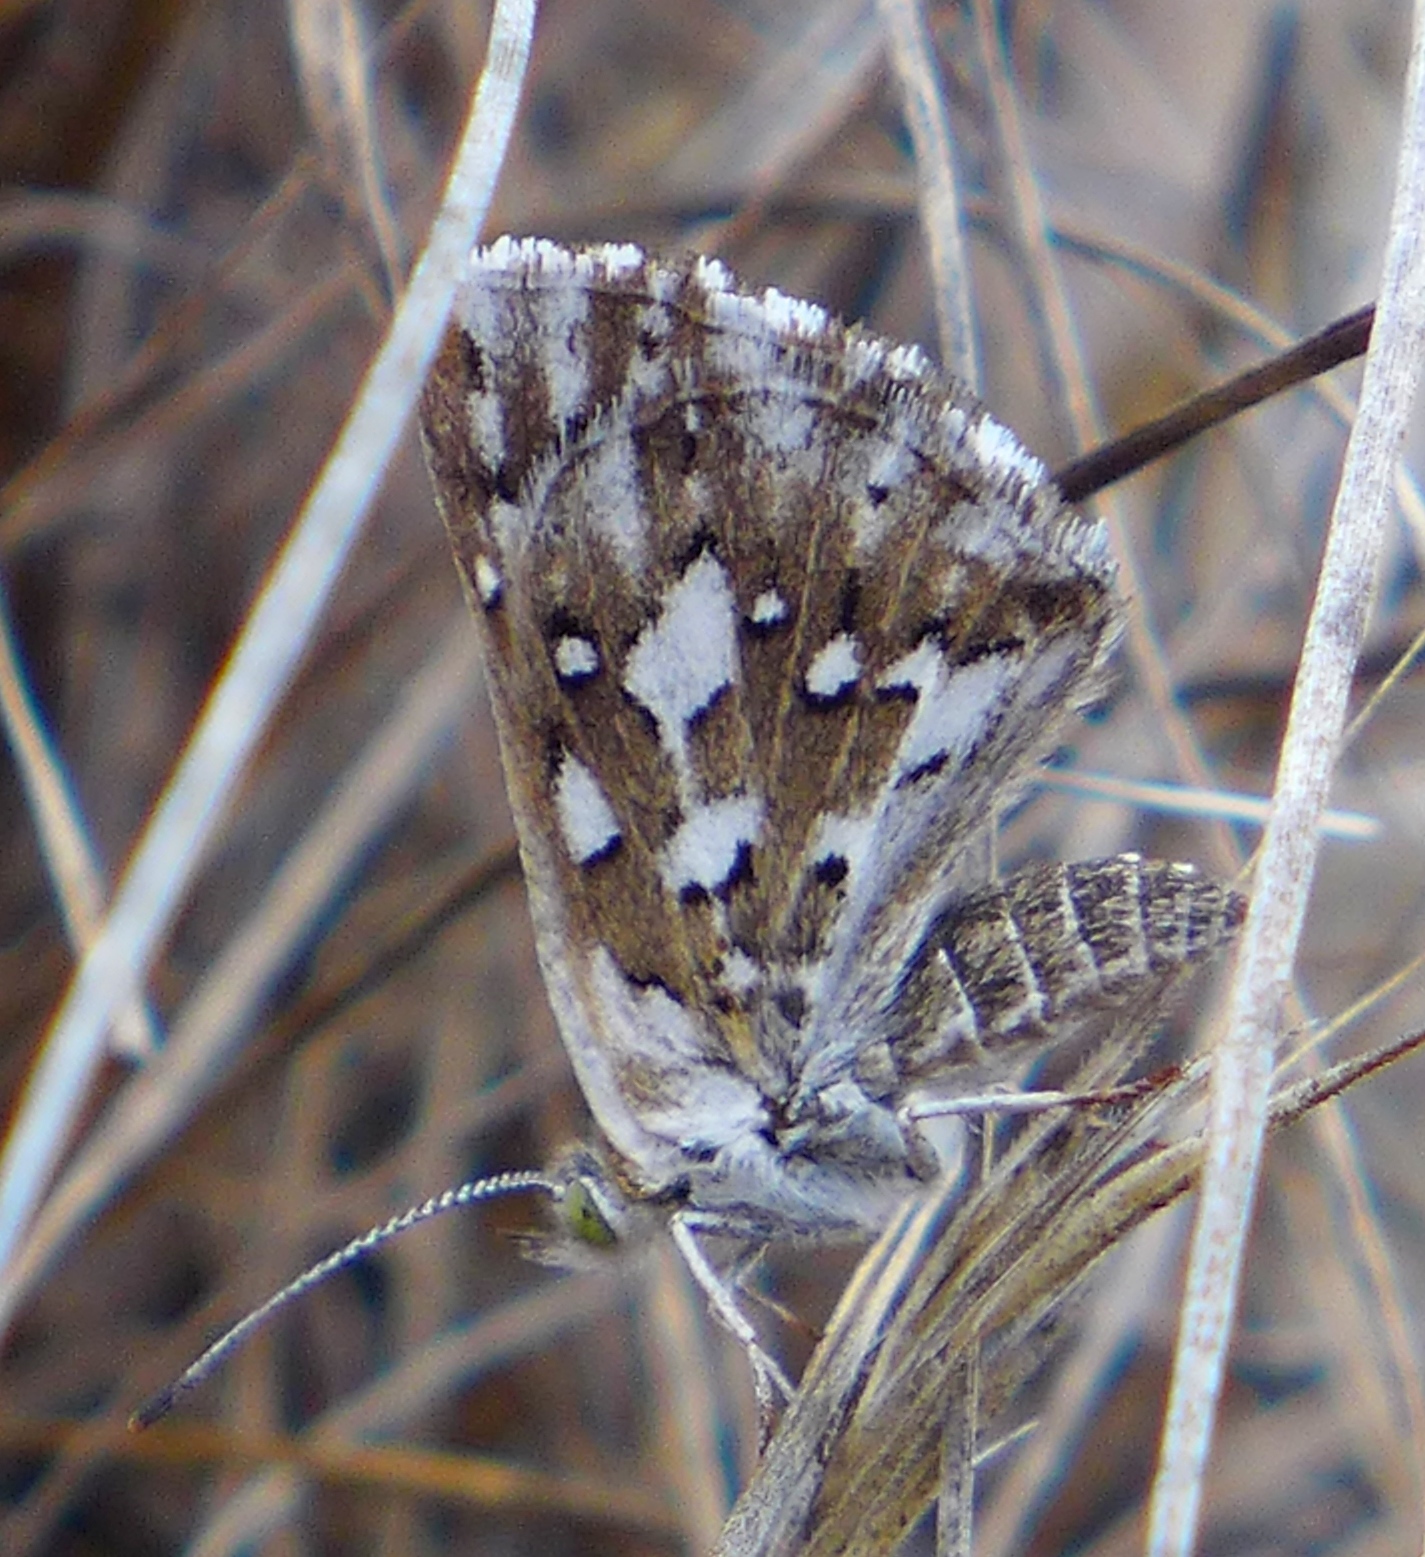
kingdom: Animalia
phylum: Arthropoda
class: Insecta
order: Lepidoptera
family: Riodinidae
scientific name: Riodinidae
